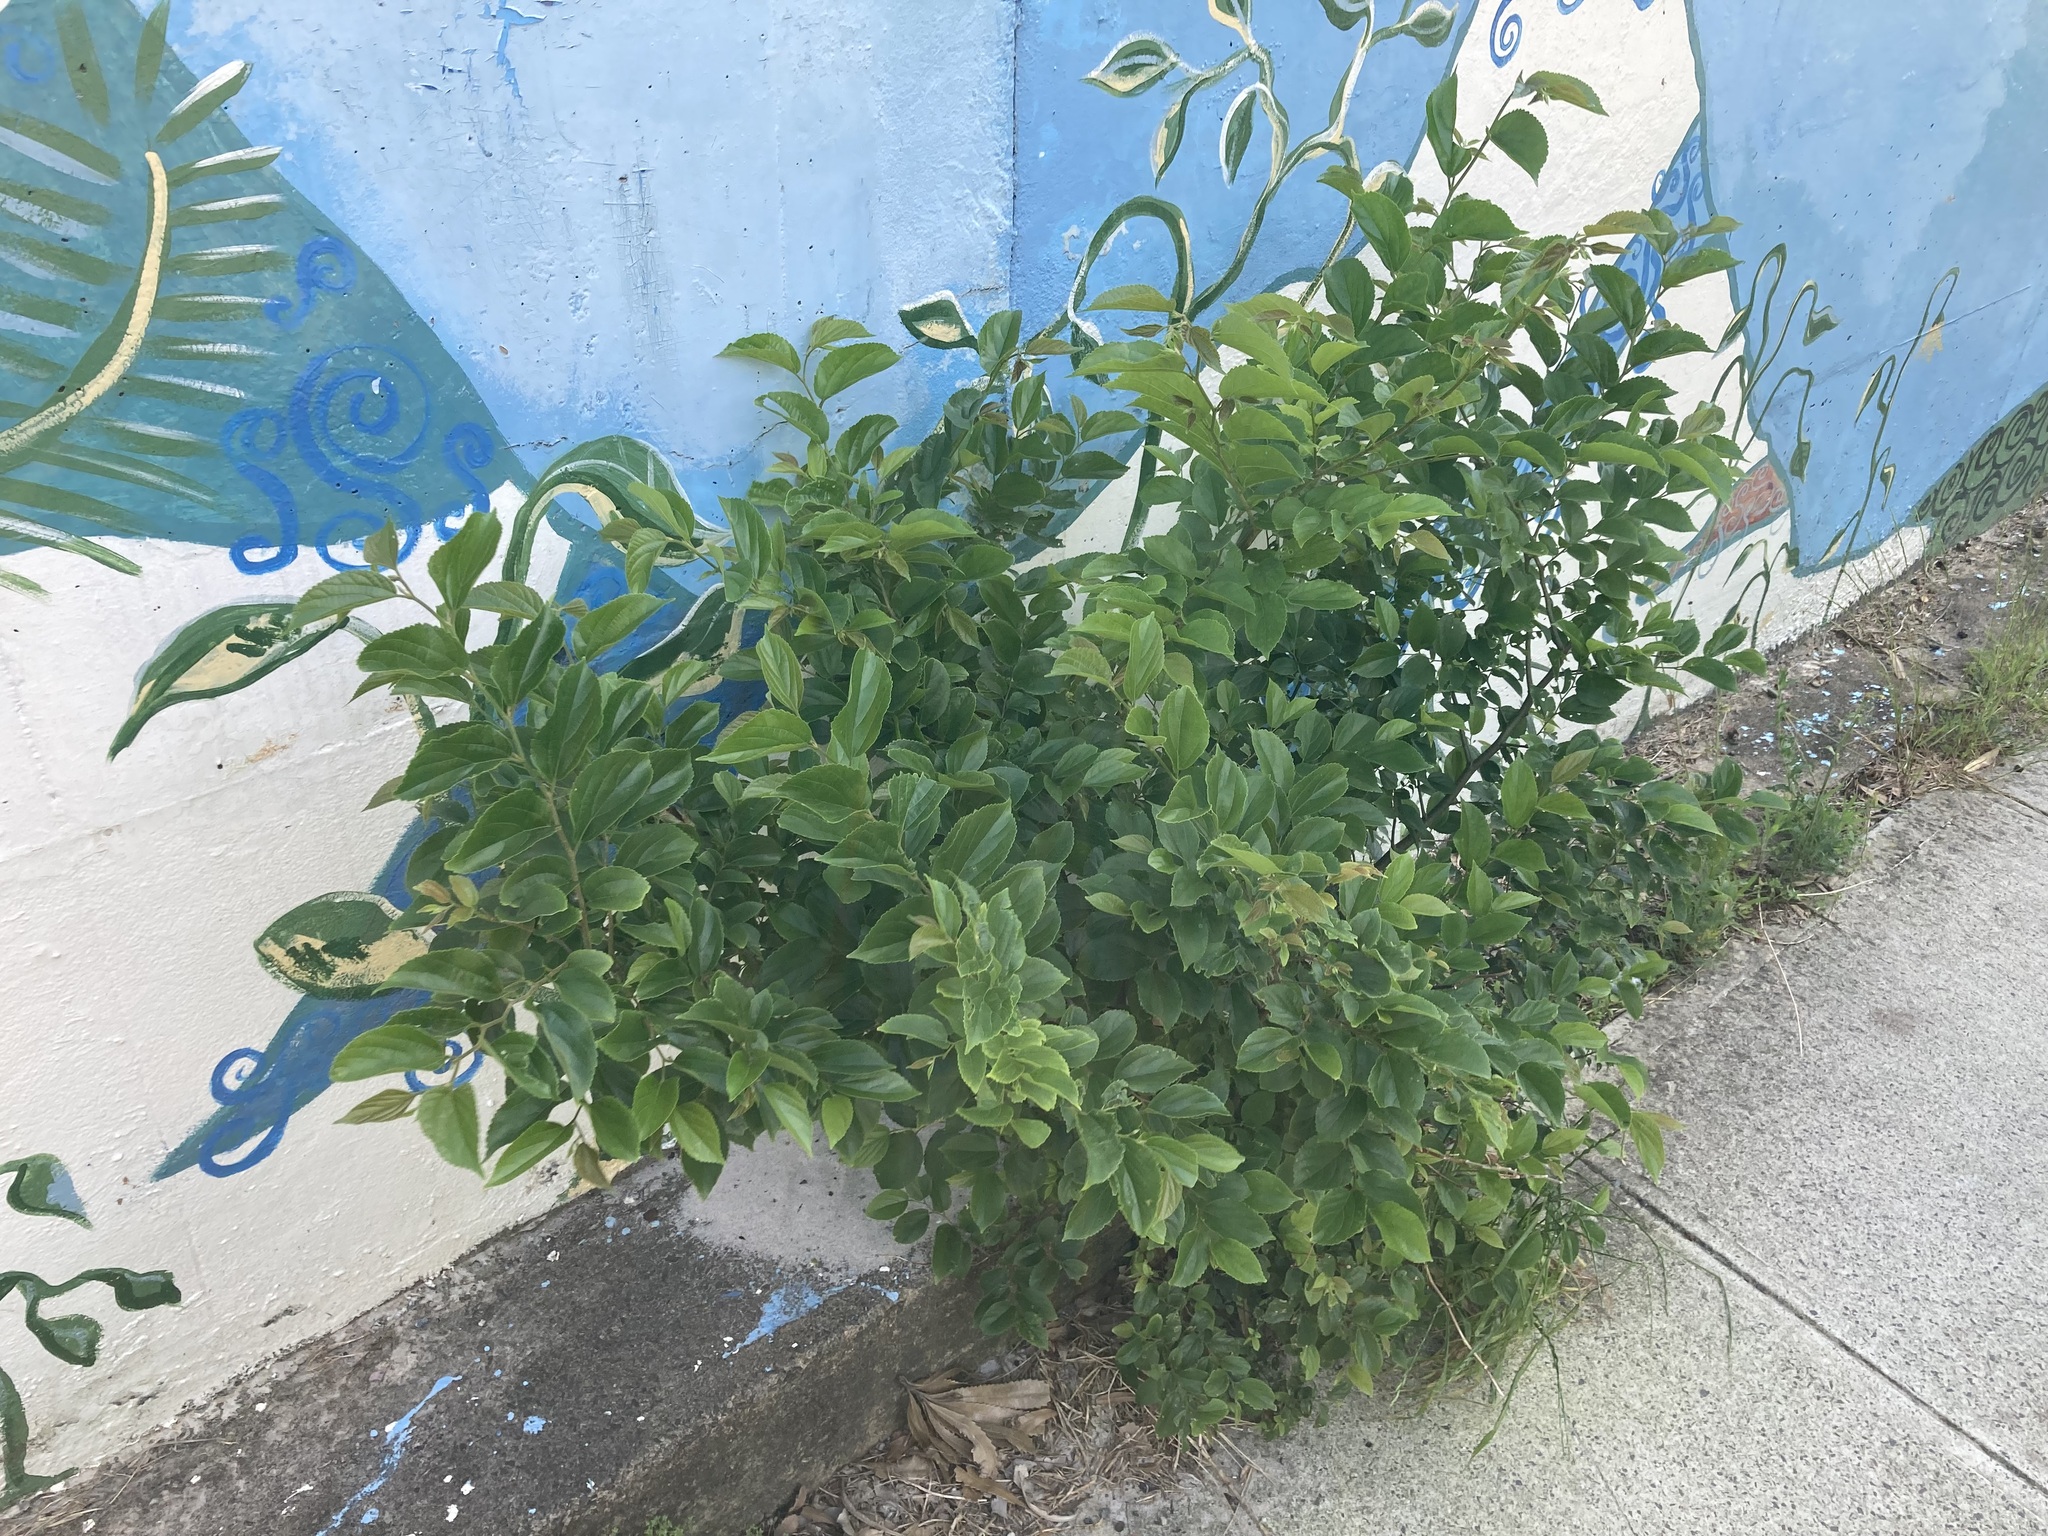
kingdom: Plantae
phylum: Tracheophyta
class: Magnoliopsida
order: Rosales
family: Cannabaceae
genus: Celtis
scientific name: Celtis sinensis
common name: Chinese hackberry
